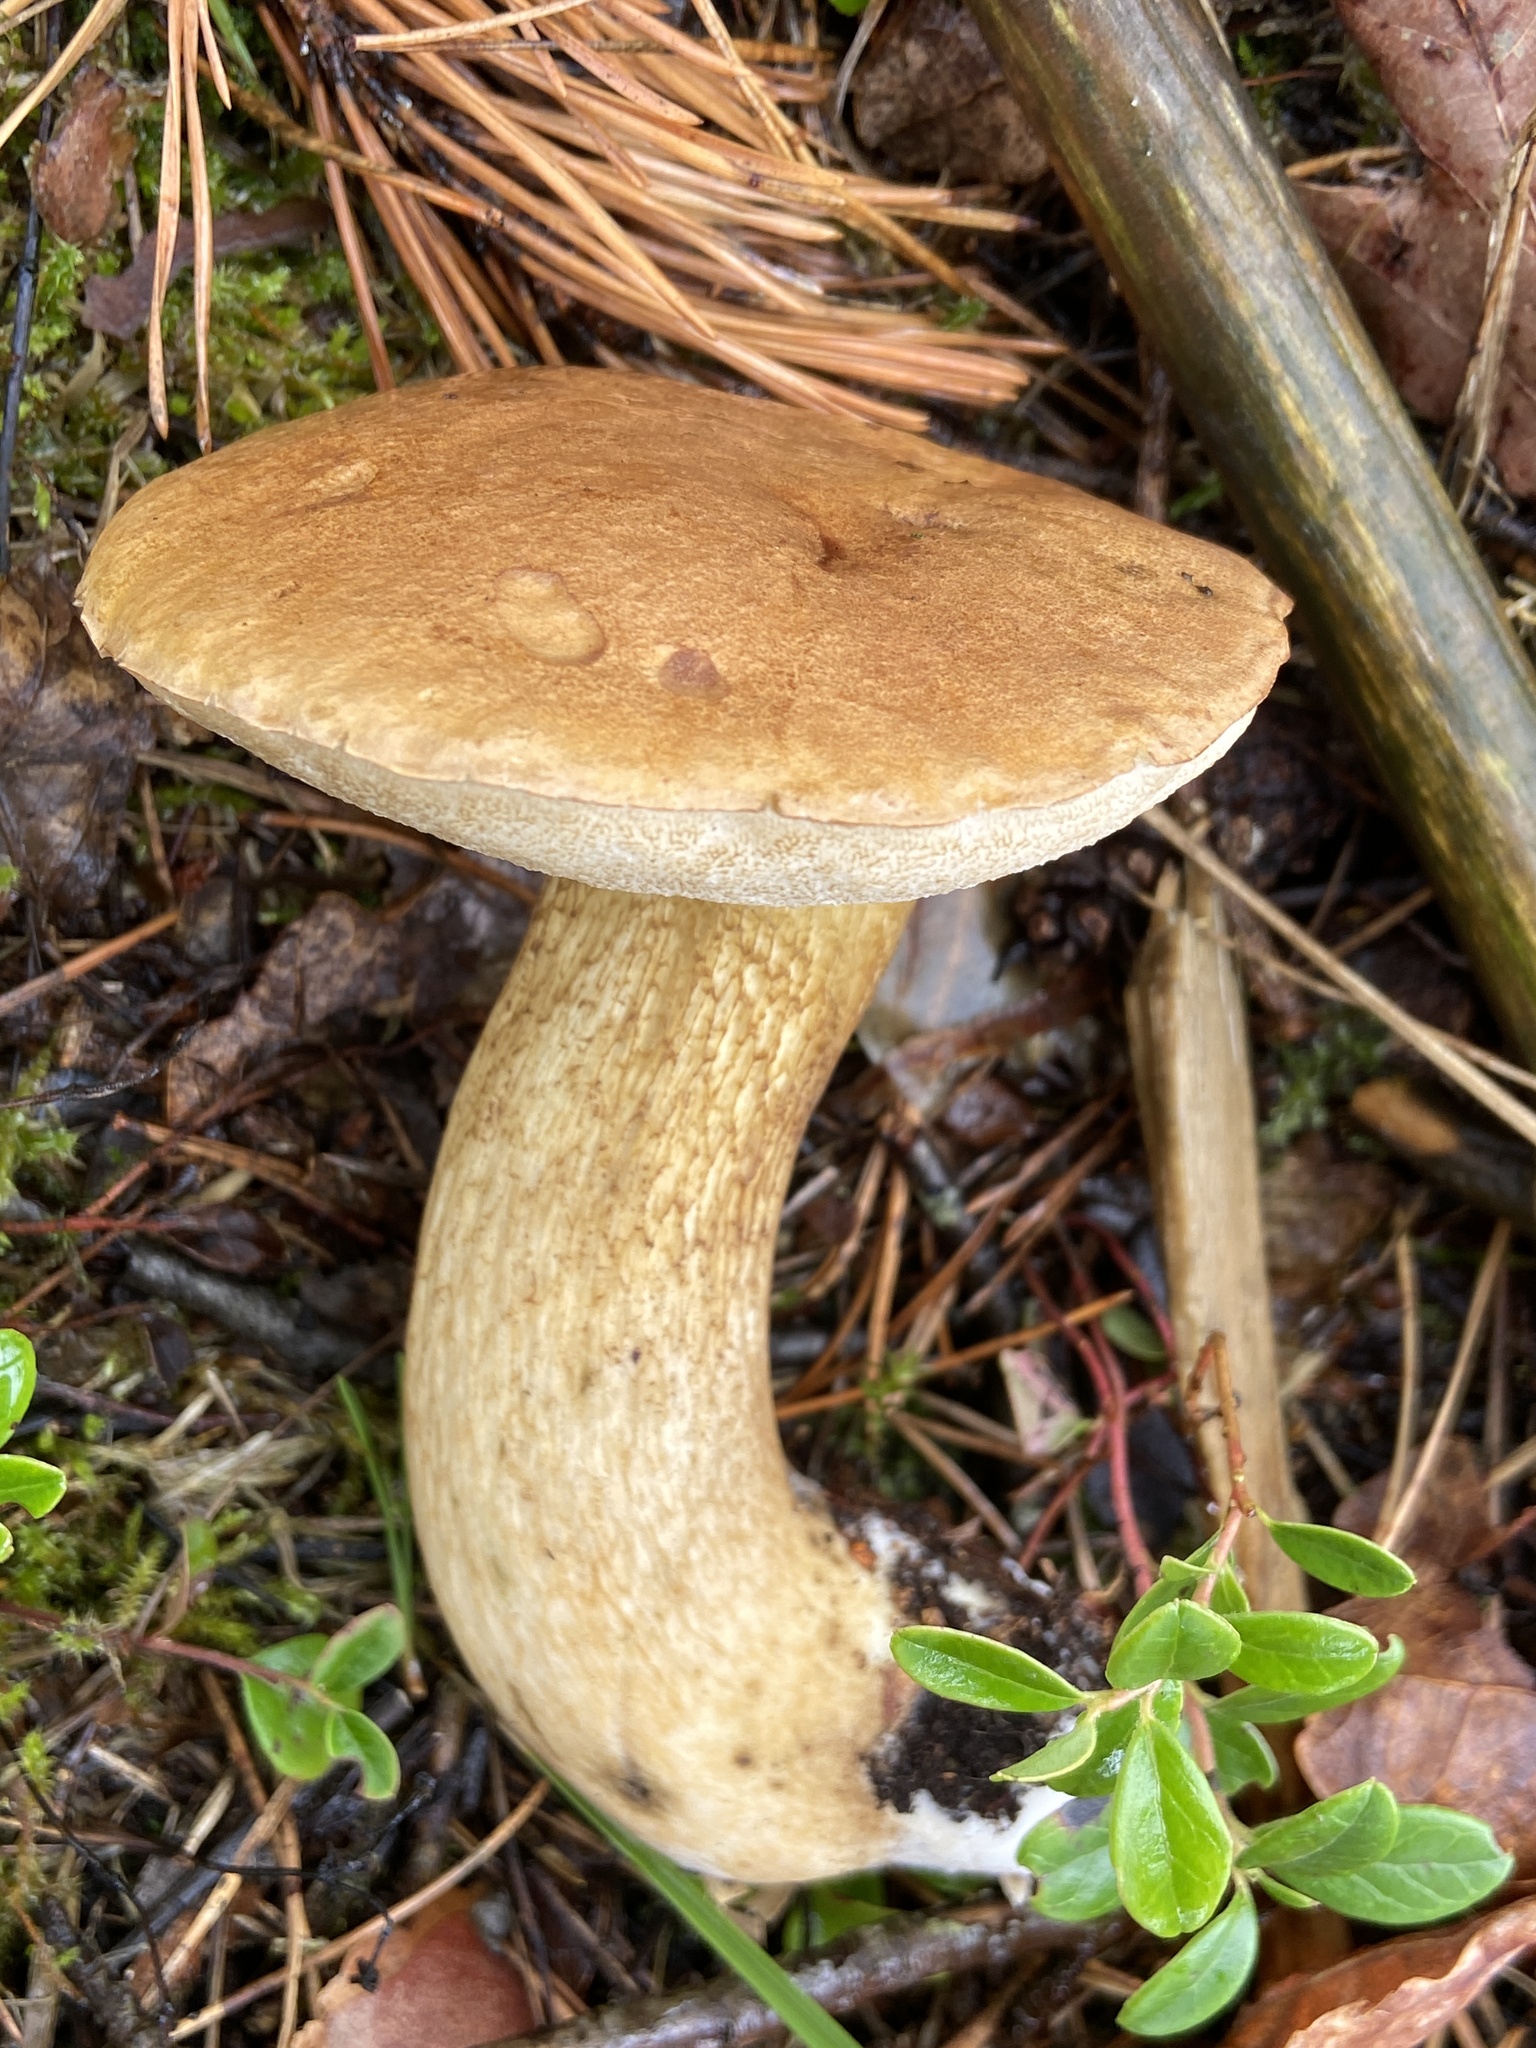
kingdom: Fungi
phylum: Basidiomycota
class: Agaricomycetes
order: Boletales
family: Boletaceae
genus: Tylopilus
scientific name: Tylopilus felleus
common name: Bitter bolete
